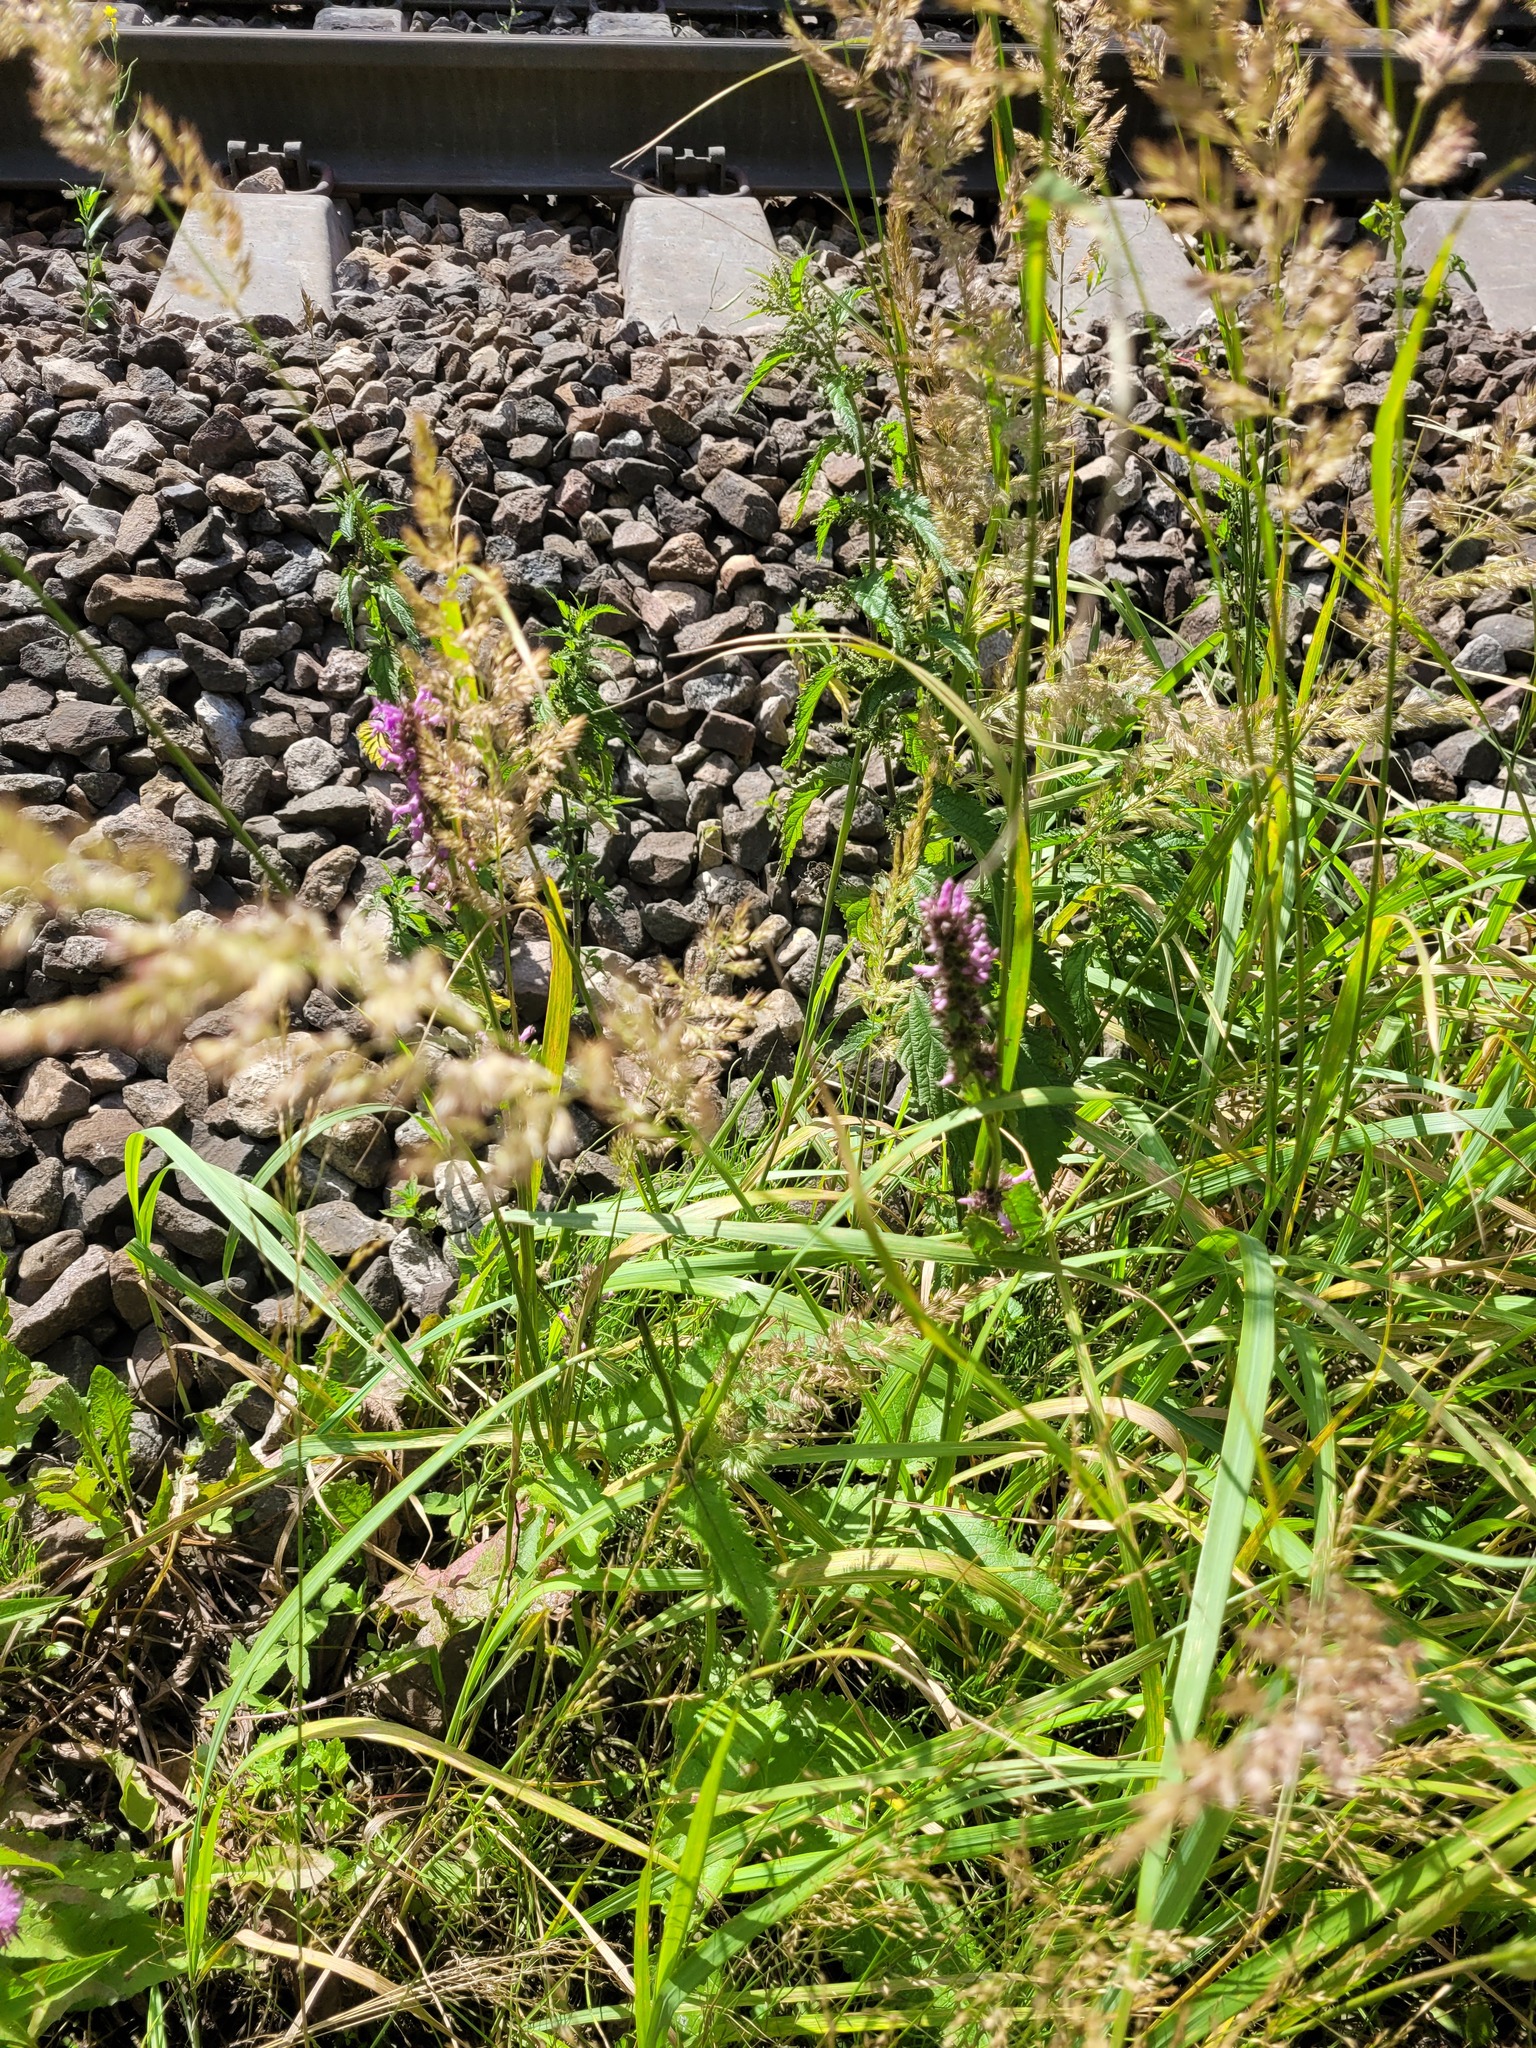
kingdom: Plantae
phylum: Tracheophyta
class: Magnoliopsida
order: Lamiales
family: Lamiaceae
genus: Betonica
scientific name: Betonica officinalis
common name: Bishop's-wort
